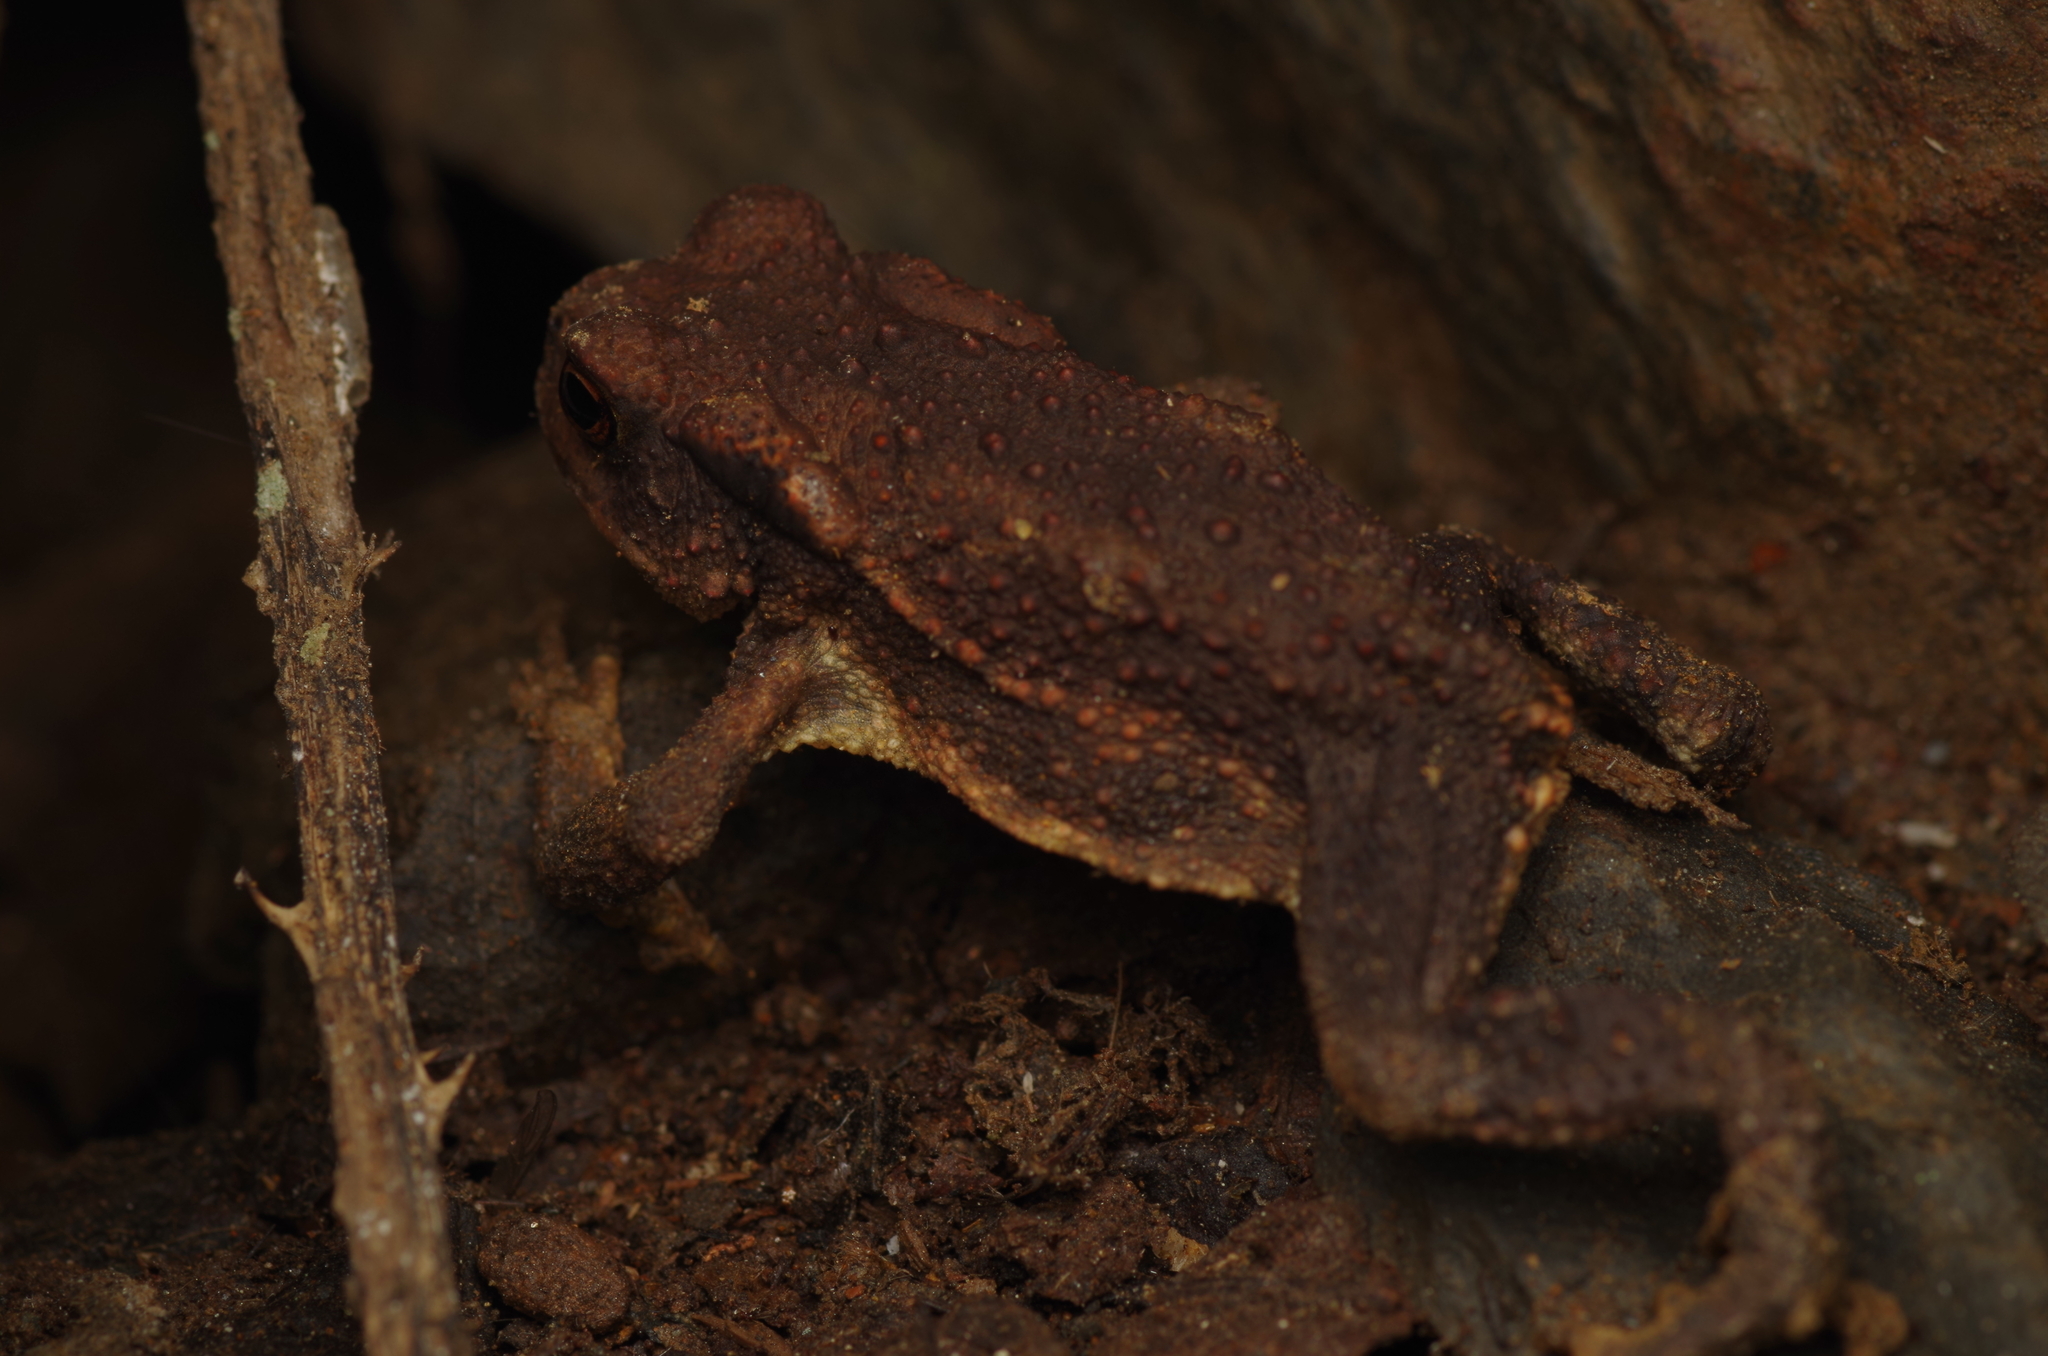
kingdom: Animalia
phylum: Chordata
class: Amphibia
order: Anura
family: Bufonidae
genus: Bufo
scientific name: Bufo spinosus
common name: Western common toad
